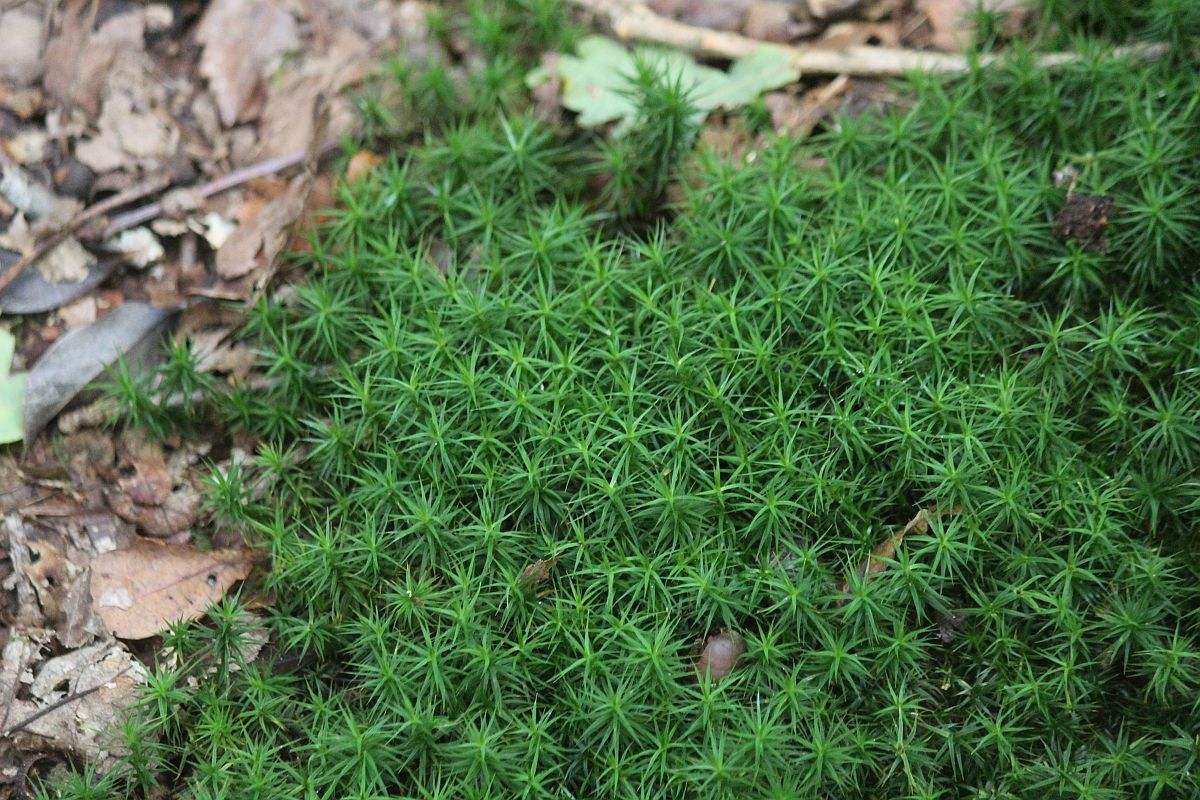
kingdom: Plantae
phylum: Bryophyta
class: Polytrichopsida
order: Polytrichales
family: Polytrichaceae
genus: Polytrichum
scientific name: Polytrichum formosum
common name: Bank haircap moss
